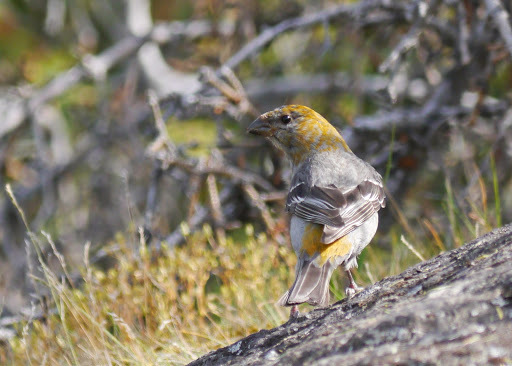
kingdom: Animalia
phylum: Chordata
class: Aves
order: Passeriformes
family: Fringillidae
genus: Pinicola
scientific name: Pinicola enucleator
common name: Pine grosbeak
